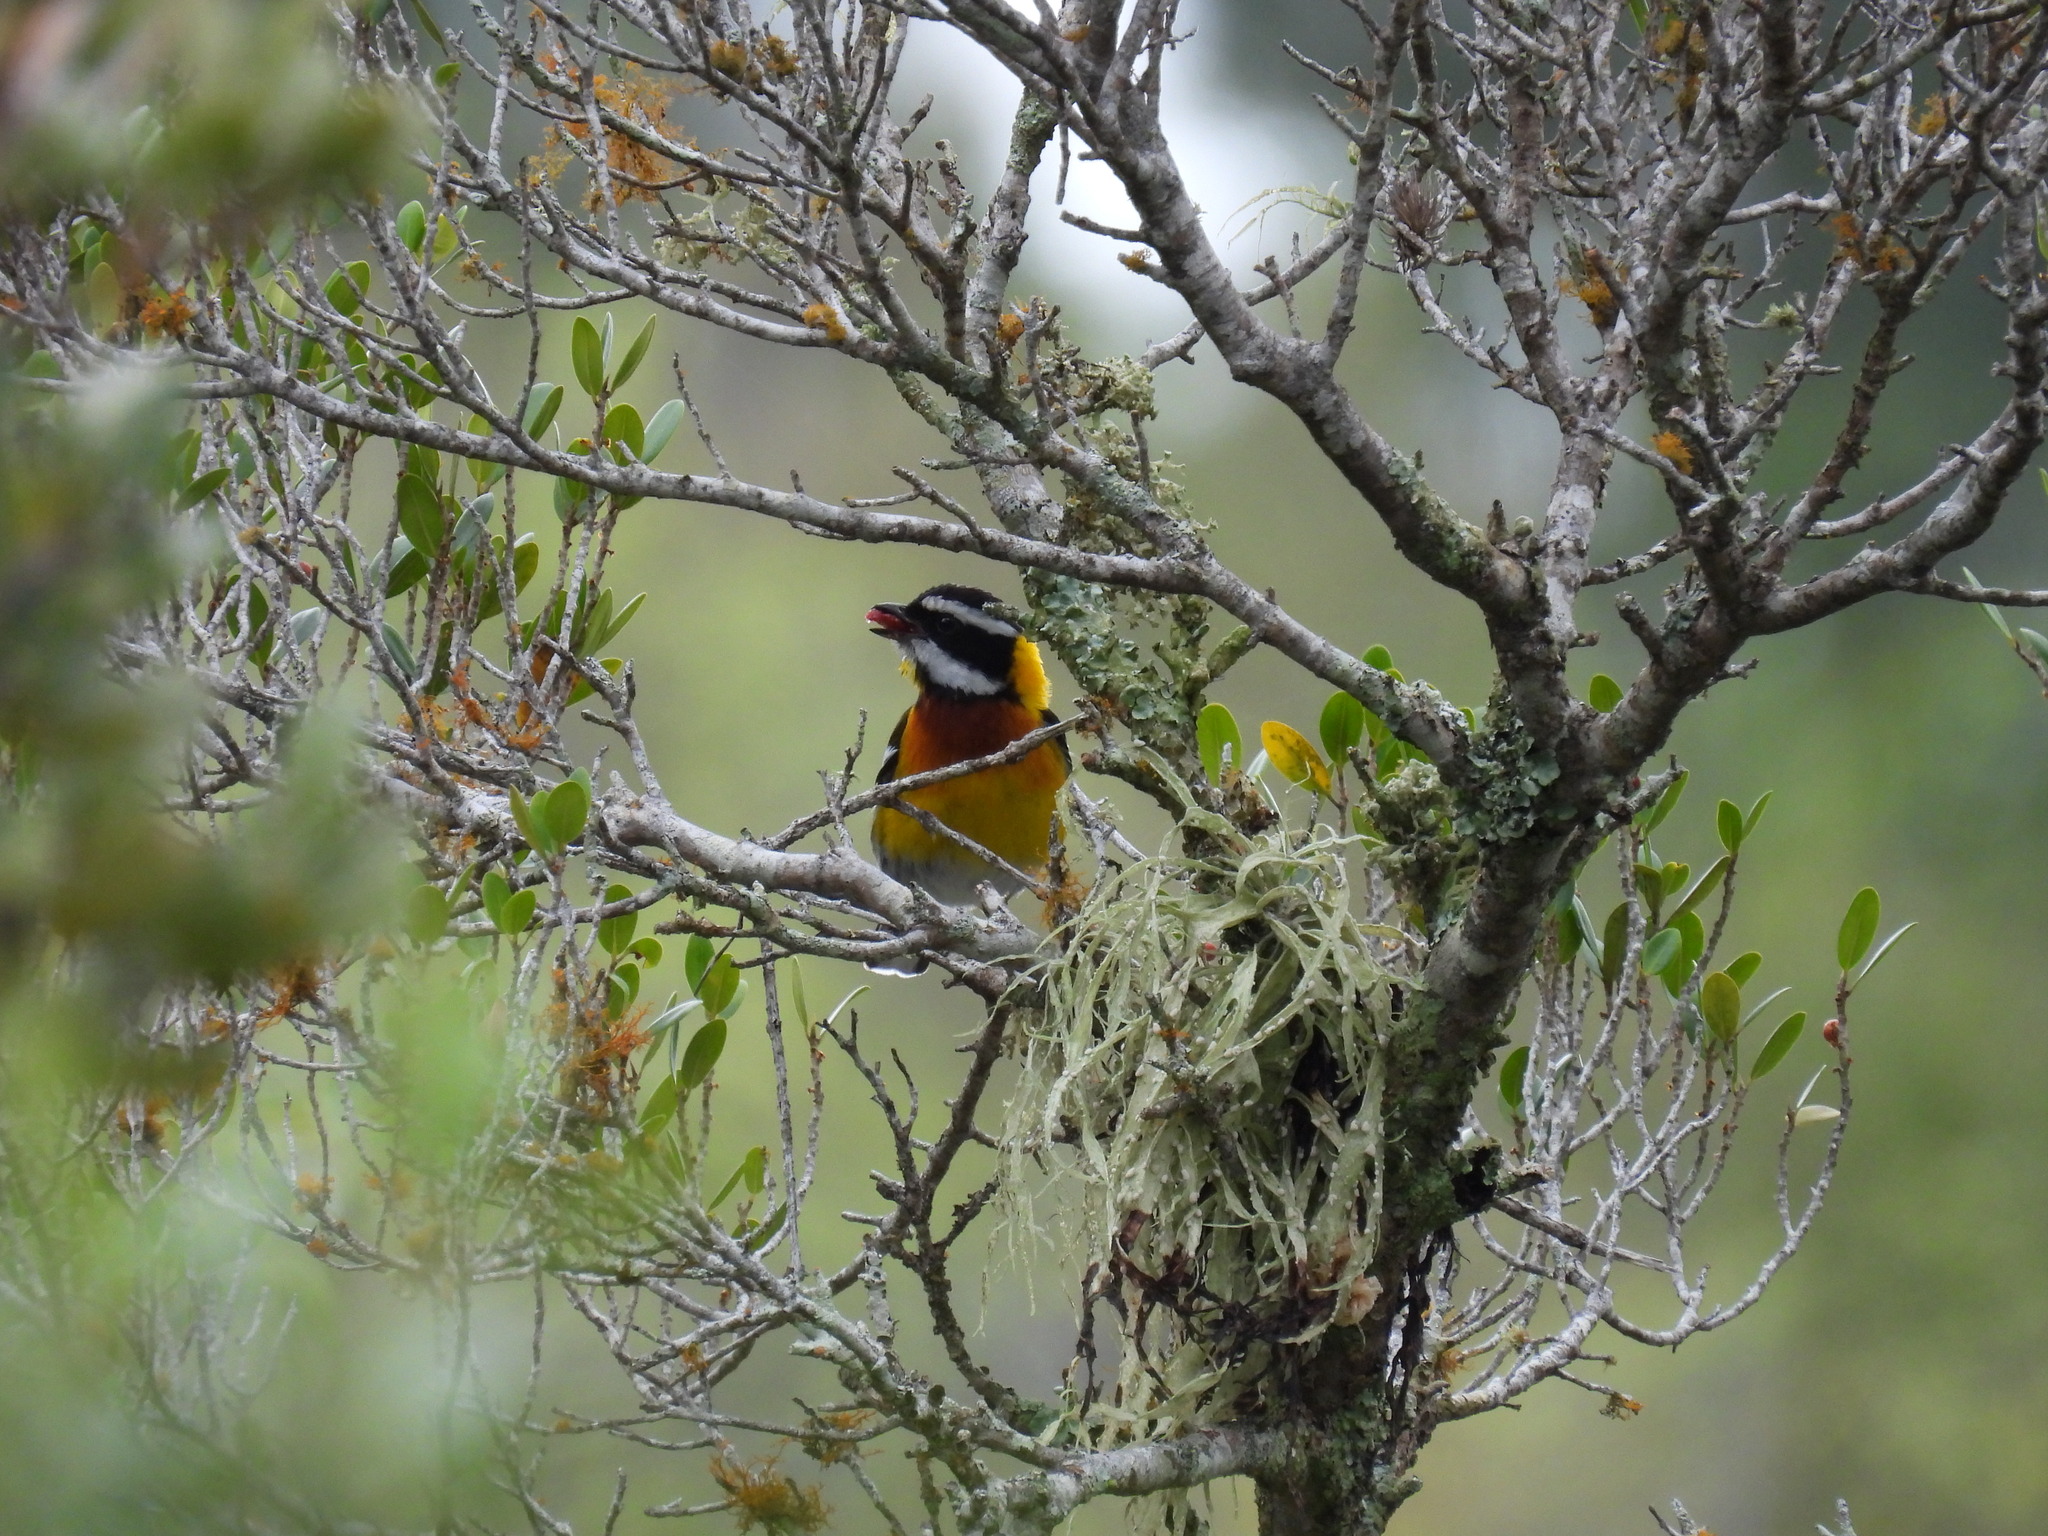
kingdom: Animalia
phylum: Chordata
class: Aves
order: Passeriformes
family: Spindalidae
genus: Spindalis
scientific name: Spindalis dominicensis
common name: Hispaniolan spindalis
